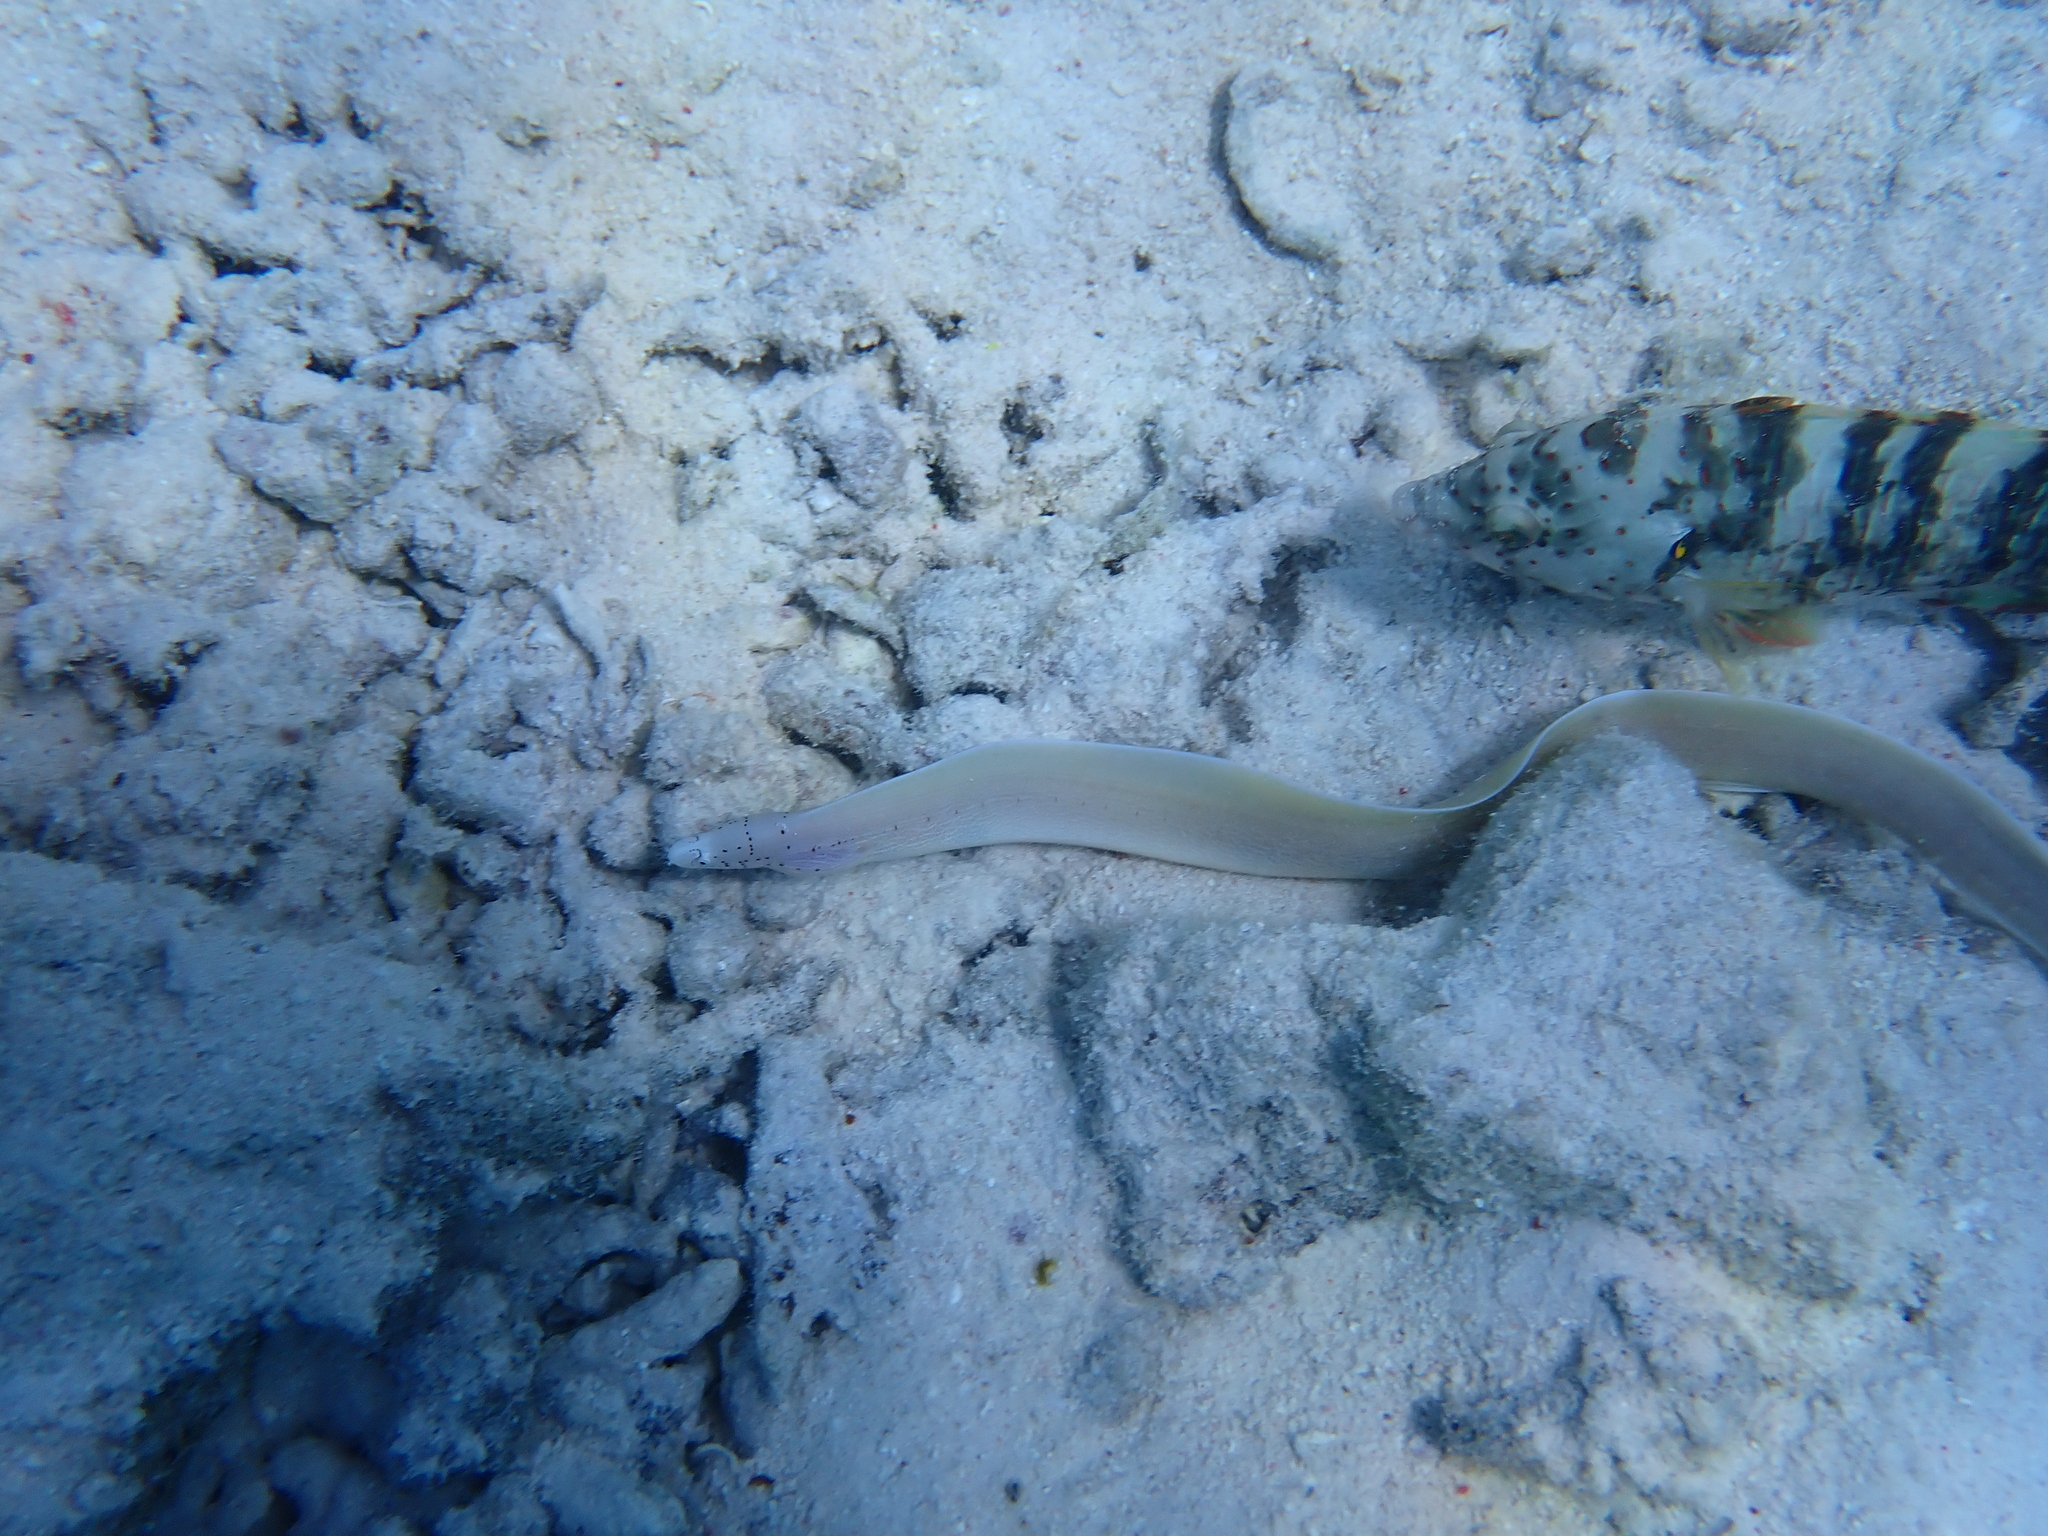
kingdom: Animalia
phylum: Chordata
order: Anguilliformes
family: Muraenidae
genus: Gymnothorax
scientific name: Gymnothorax griseus
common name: Geometric moray
